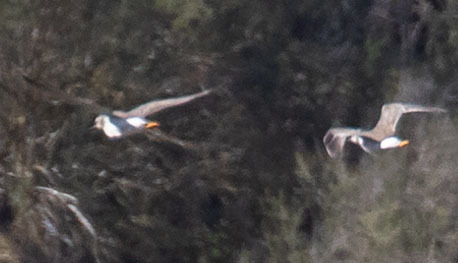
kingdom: Animalia
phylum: Chordata
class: Aves
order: Charadriiformes
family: Scolopacidae
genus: Tringa
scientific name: Tringa melanoleuca
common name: Greater yellowlegs
